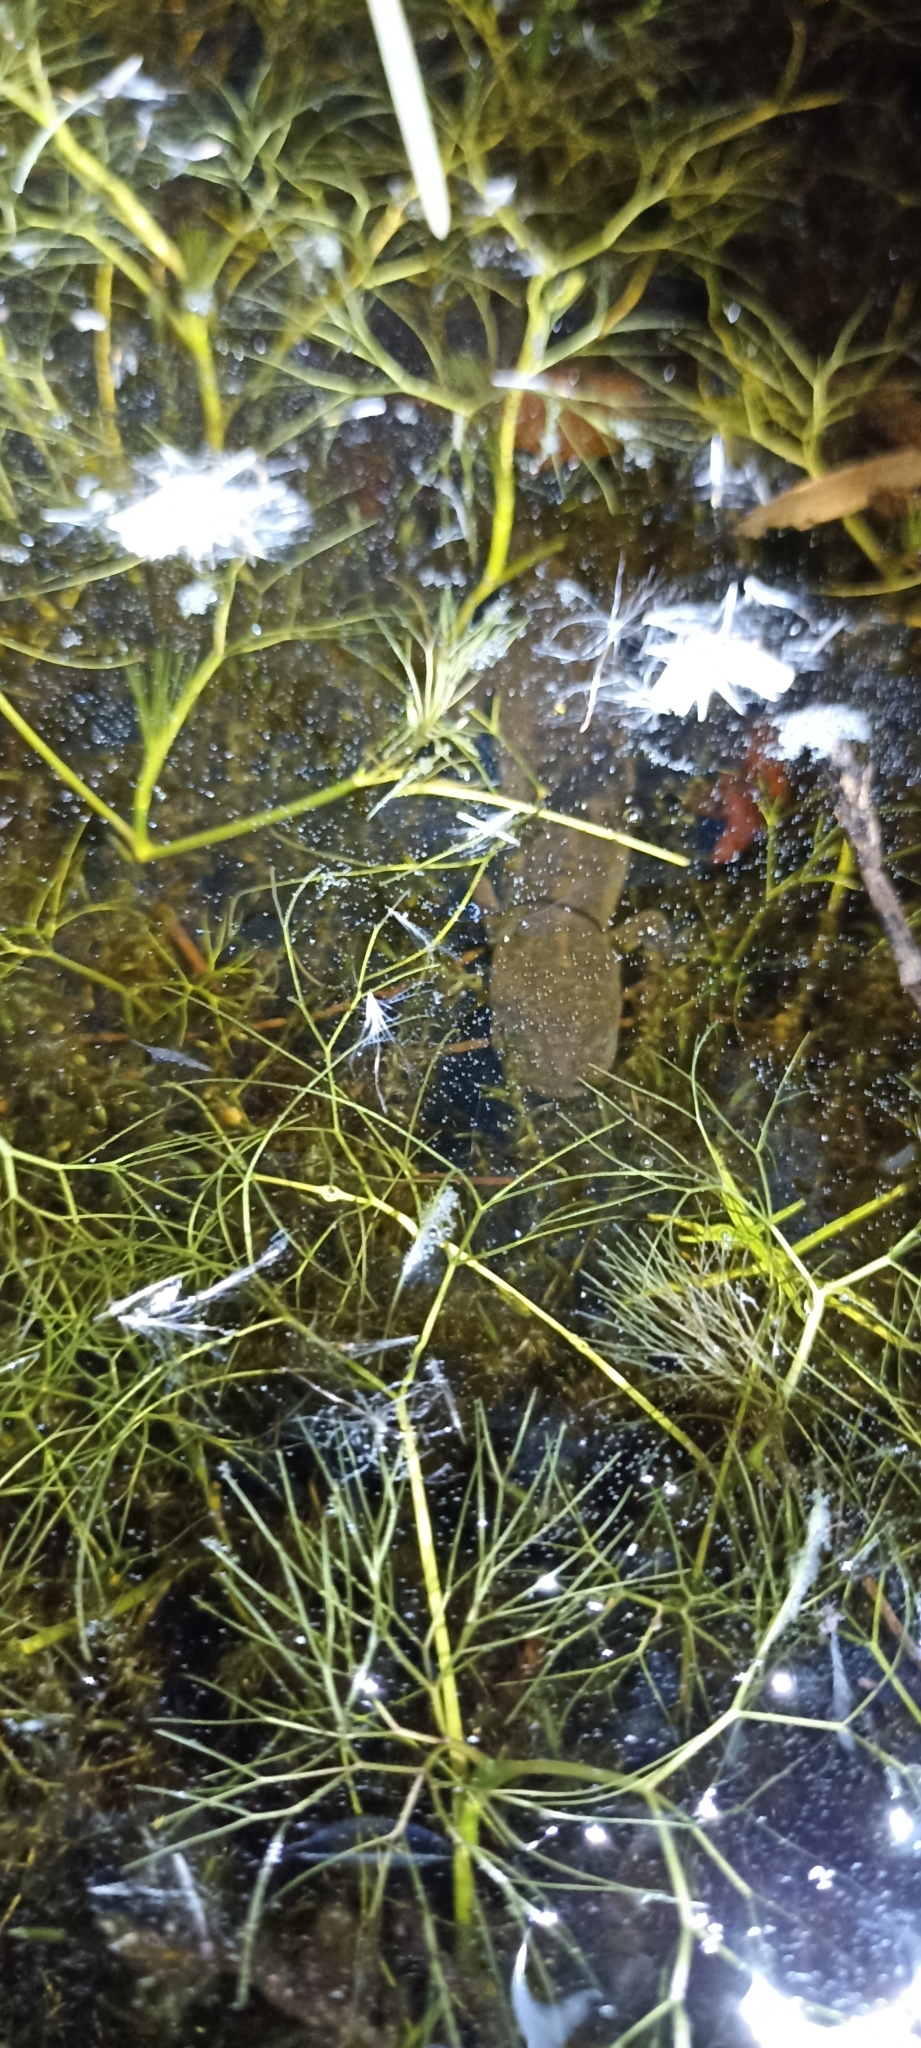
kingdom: Animalia
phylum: Chordata
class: Amphibia
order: Caudata
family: Salamandridae
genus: Triturus
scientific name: Triturus cristatus
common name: Crested newt
